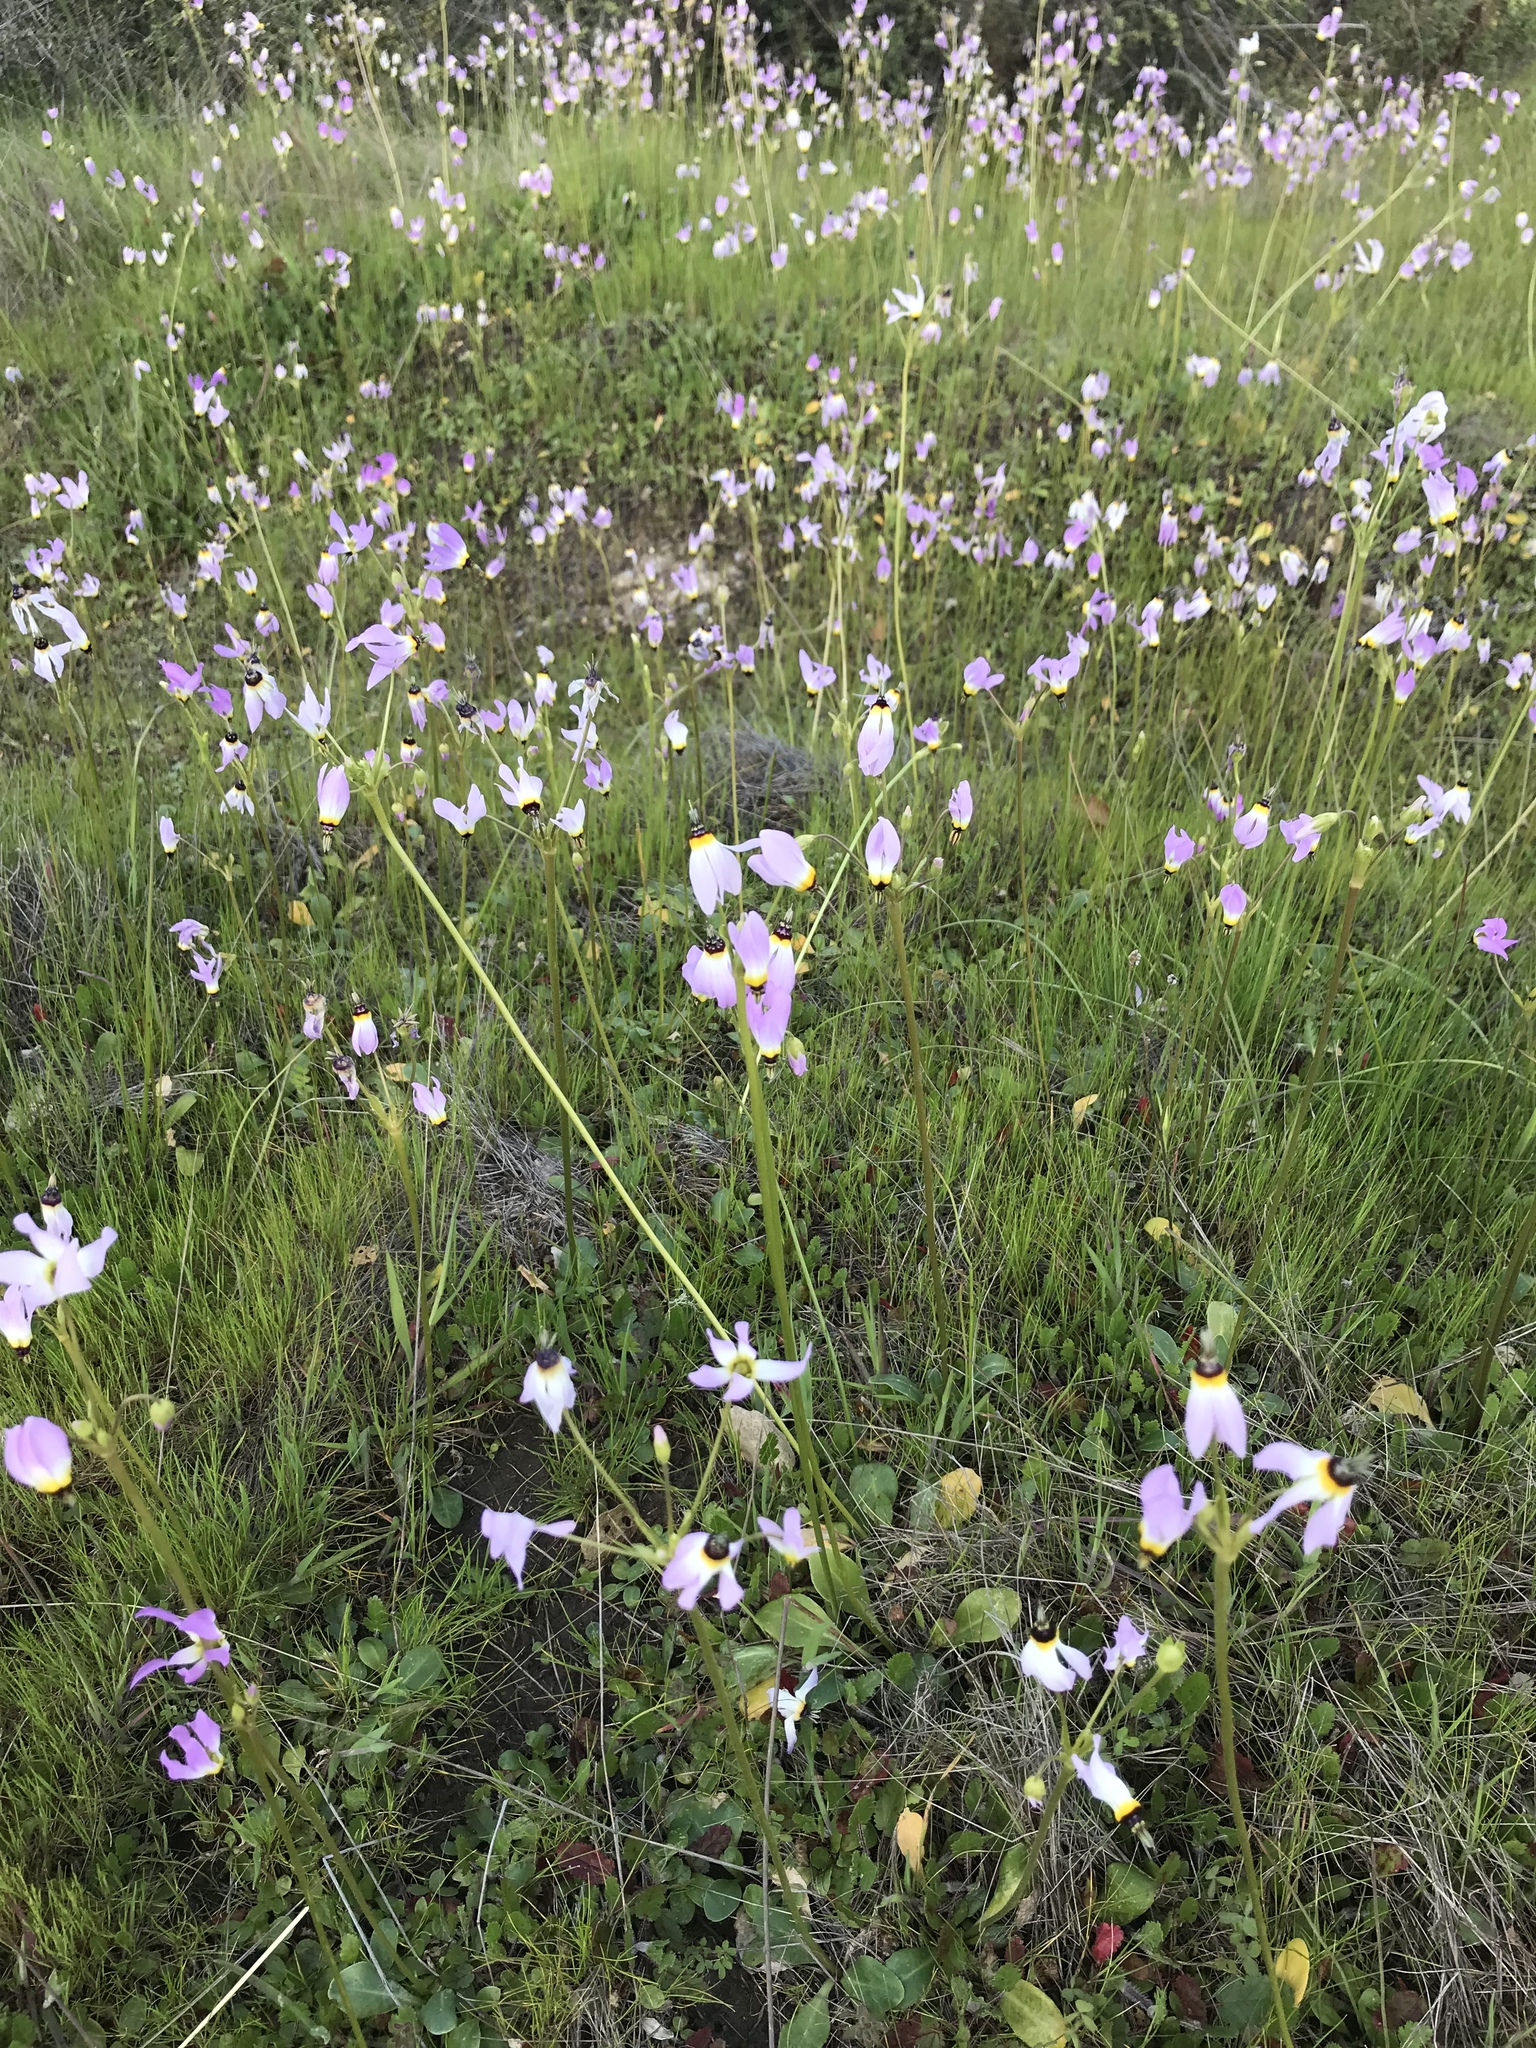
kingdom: Plantae
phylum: Tracheophyta
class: Magnoliopsida
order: Ericales
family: Primulaceae
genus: Dodecatheon
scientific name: Dodecatheon clevelandii
